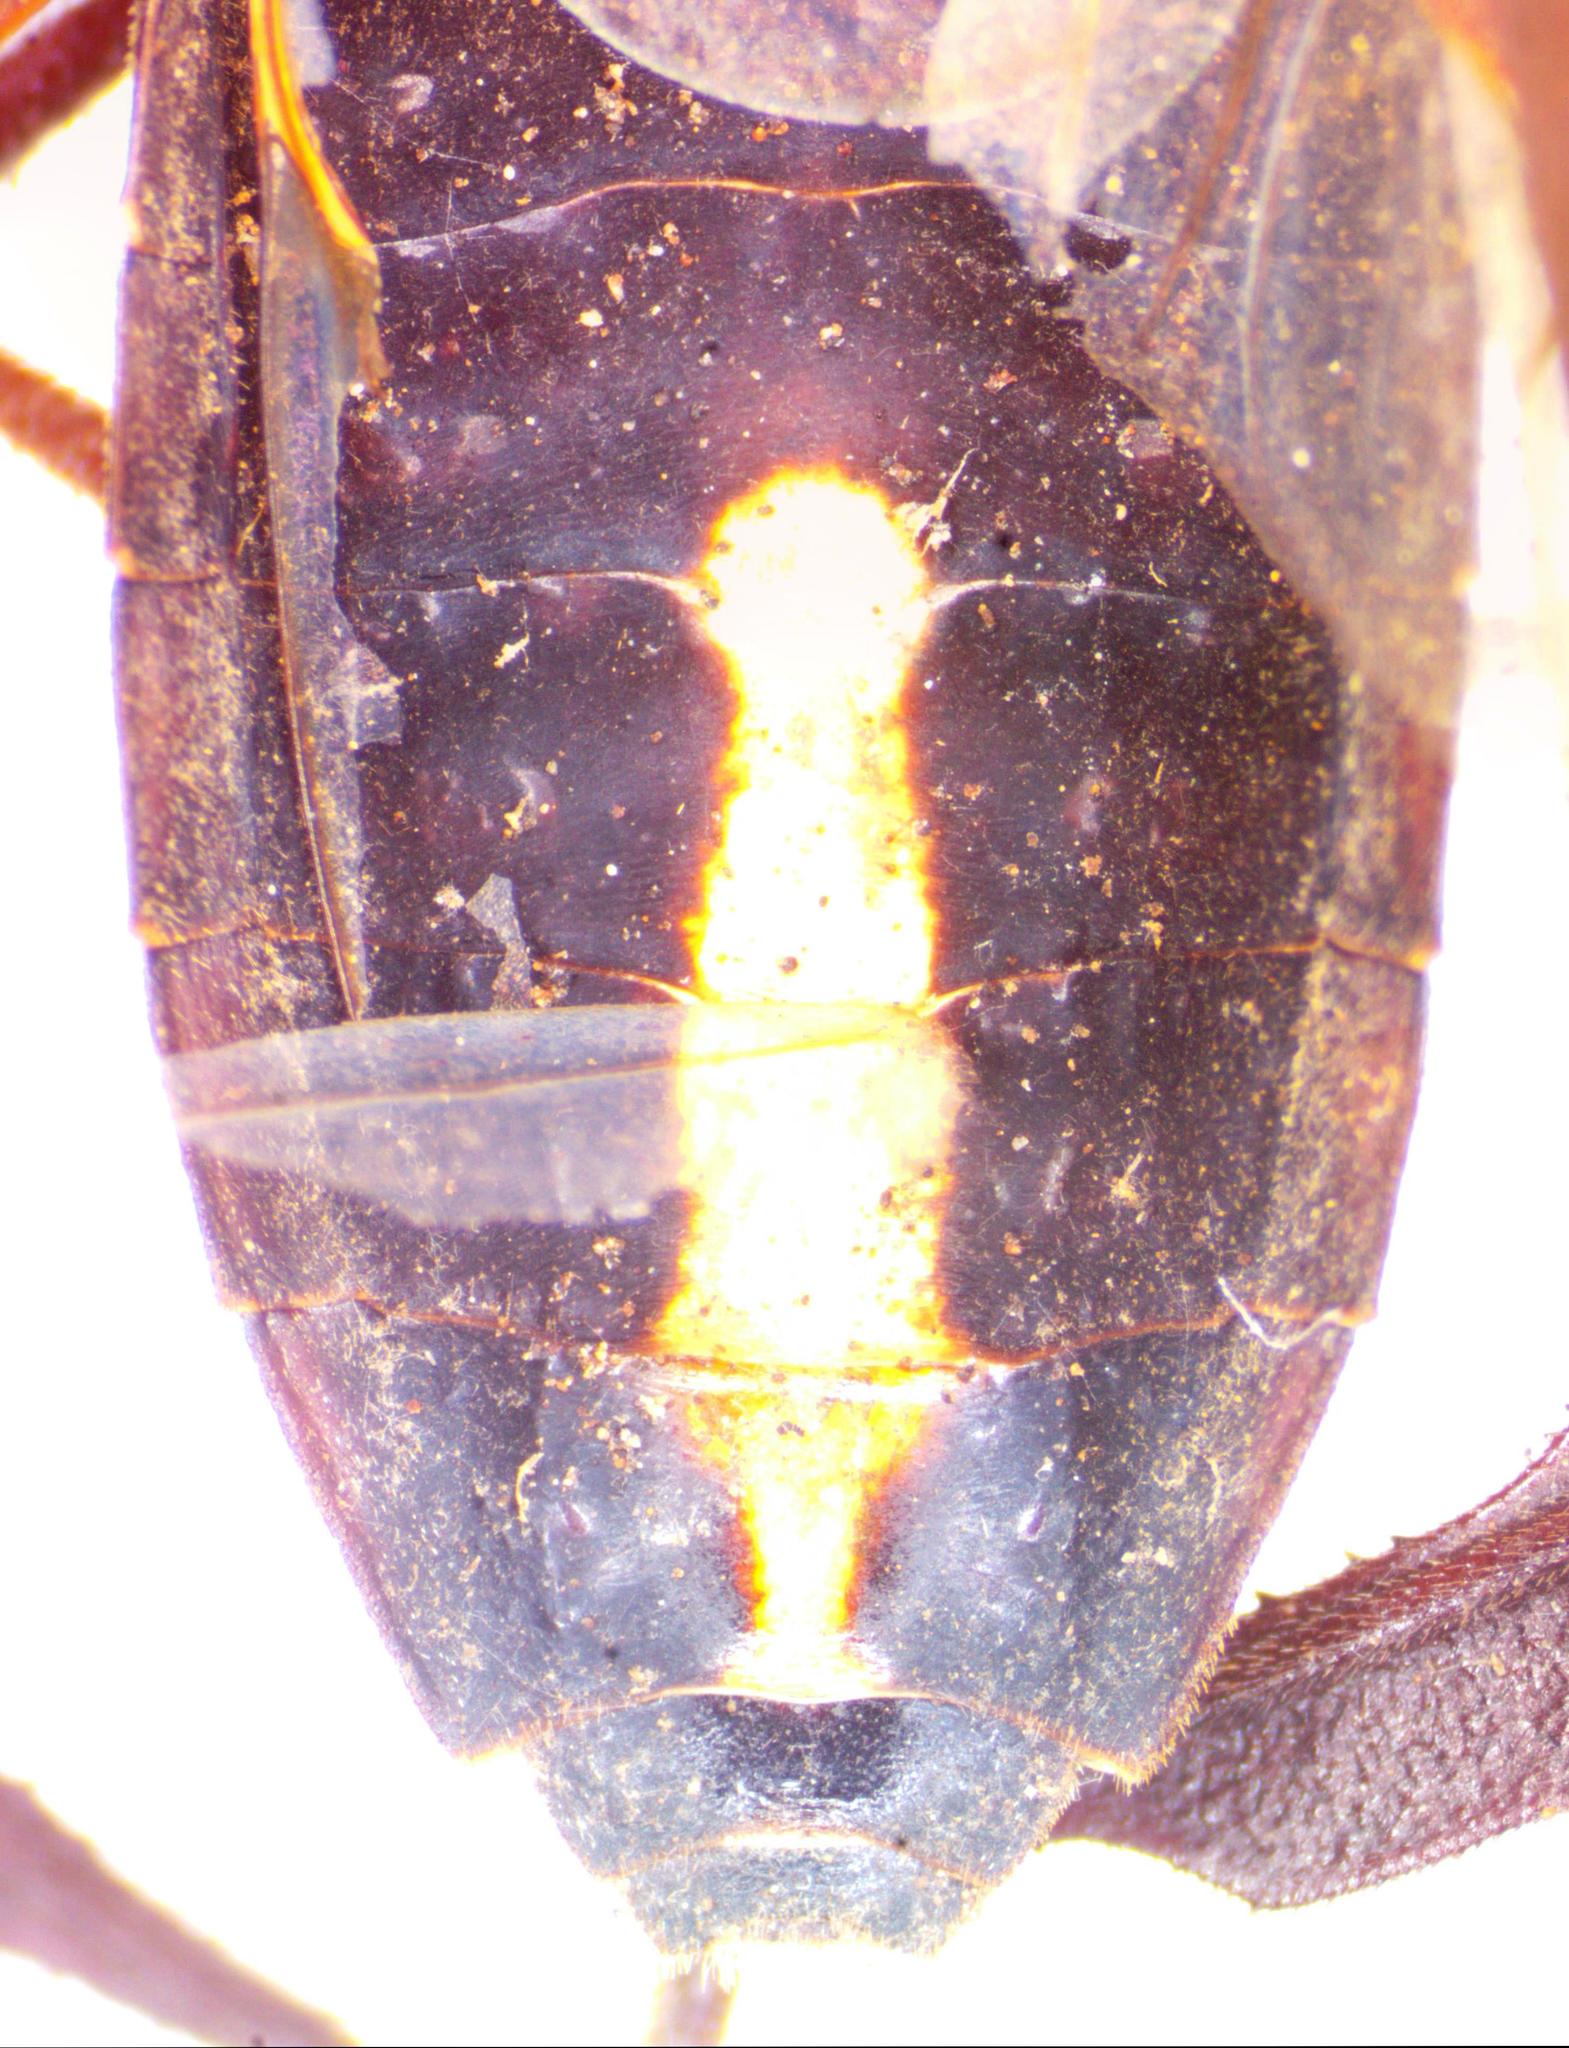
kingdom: Animalia
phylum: Arthropoda
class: Insecta
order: Hemiptera
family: Coreidae
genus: Acanthocephala
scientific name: Acanthocephala femorata
